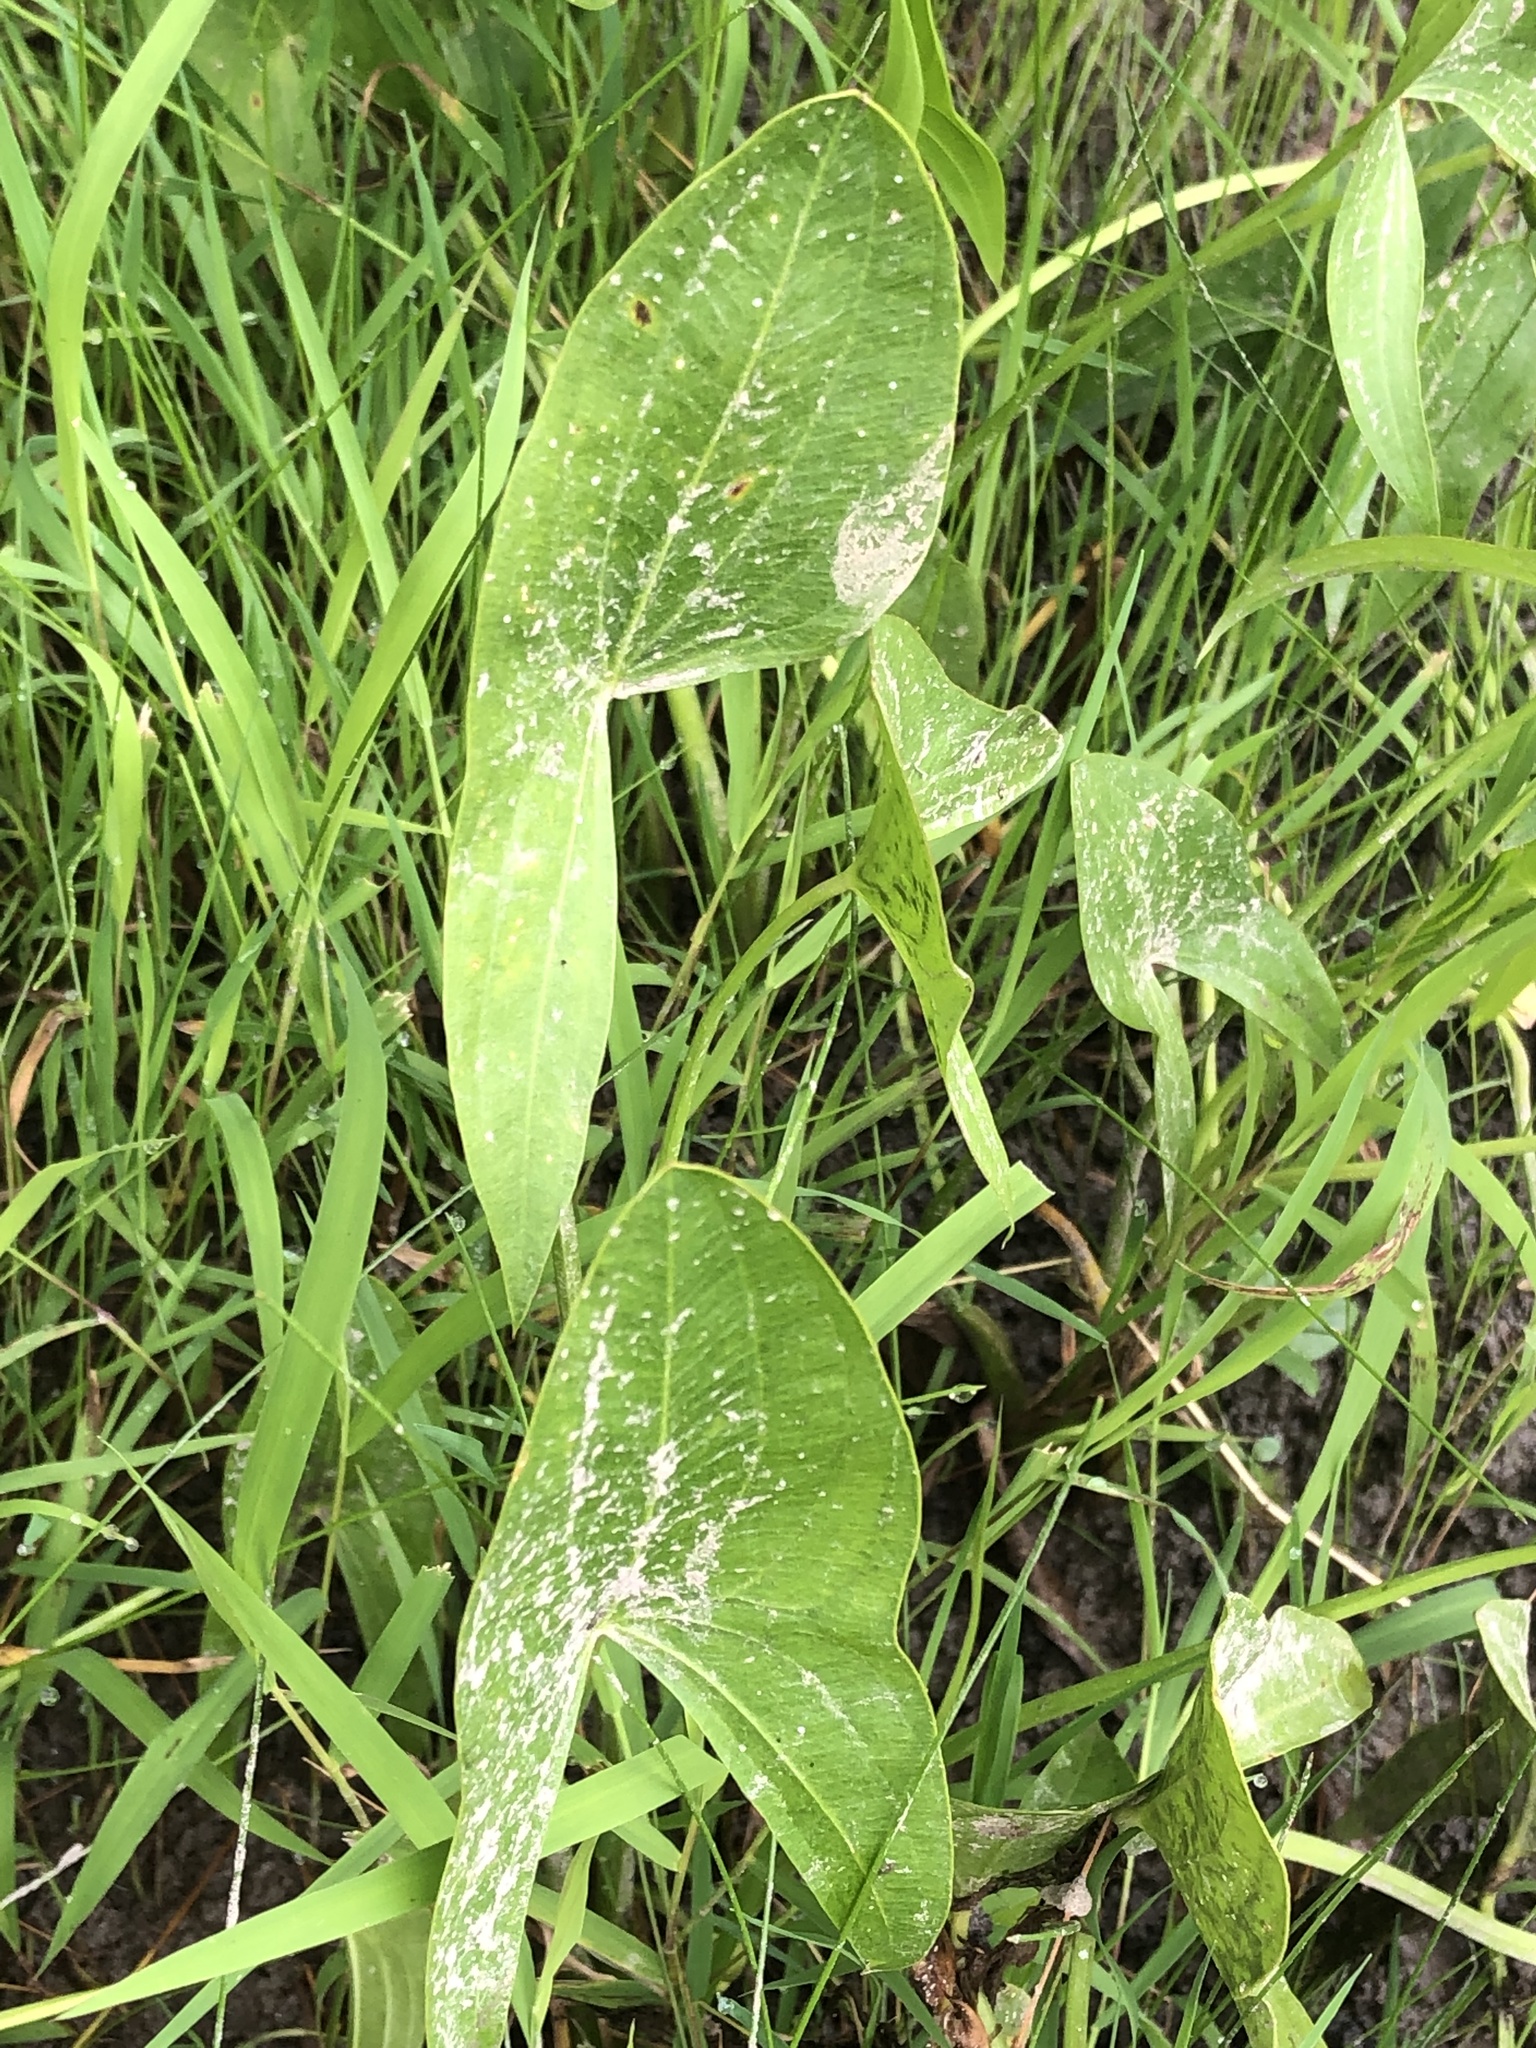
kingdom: Plantae
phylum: Tracheophyta
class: Liliopsida
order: Alismatales
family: Alismataceae
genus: Sagittaria
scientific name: Sagittaria latifolia
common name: Duck-potato
